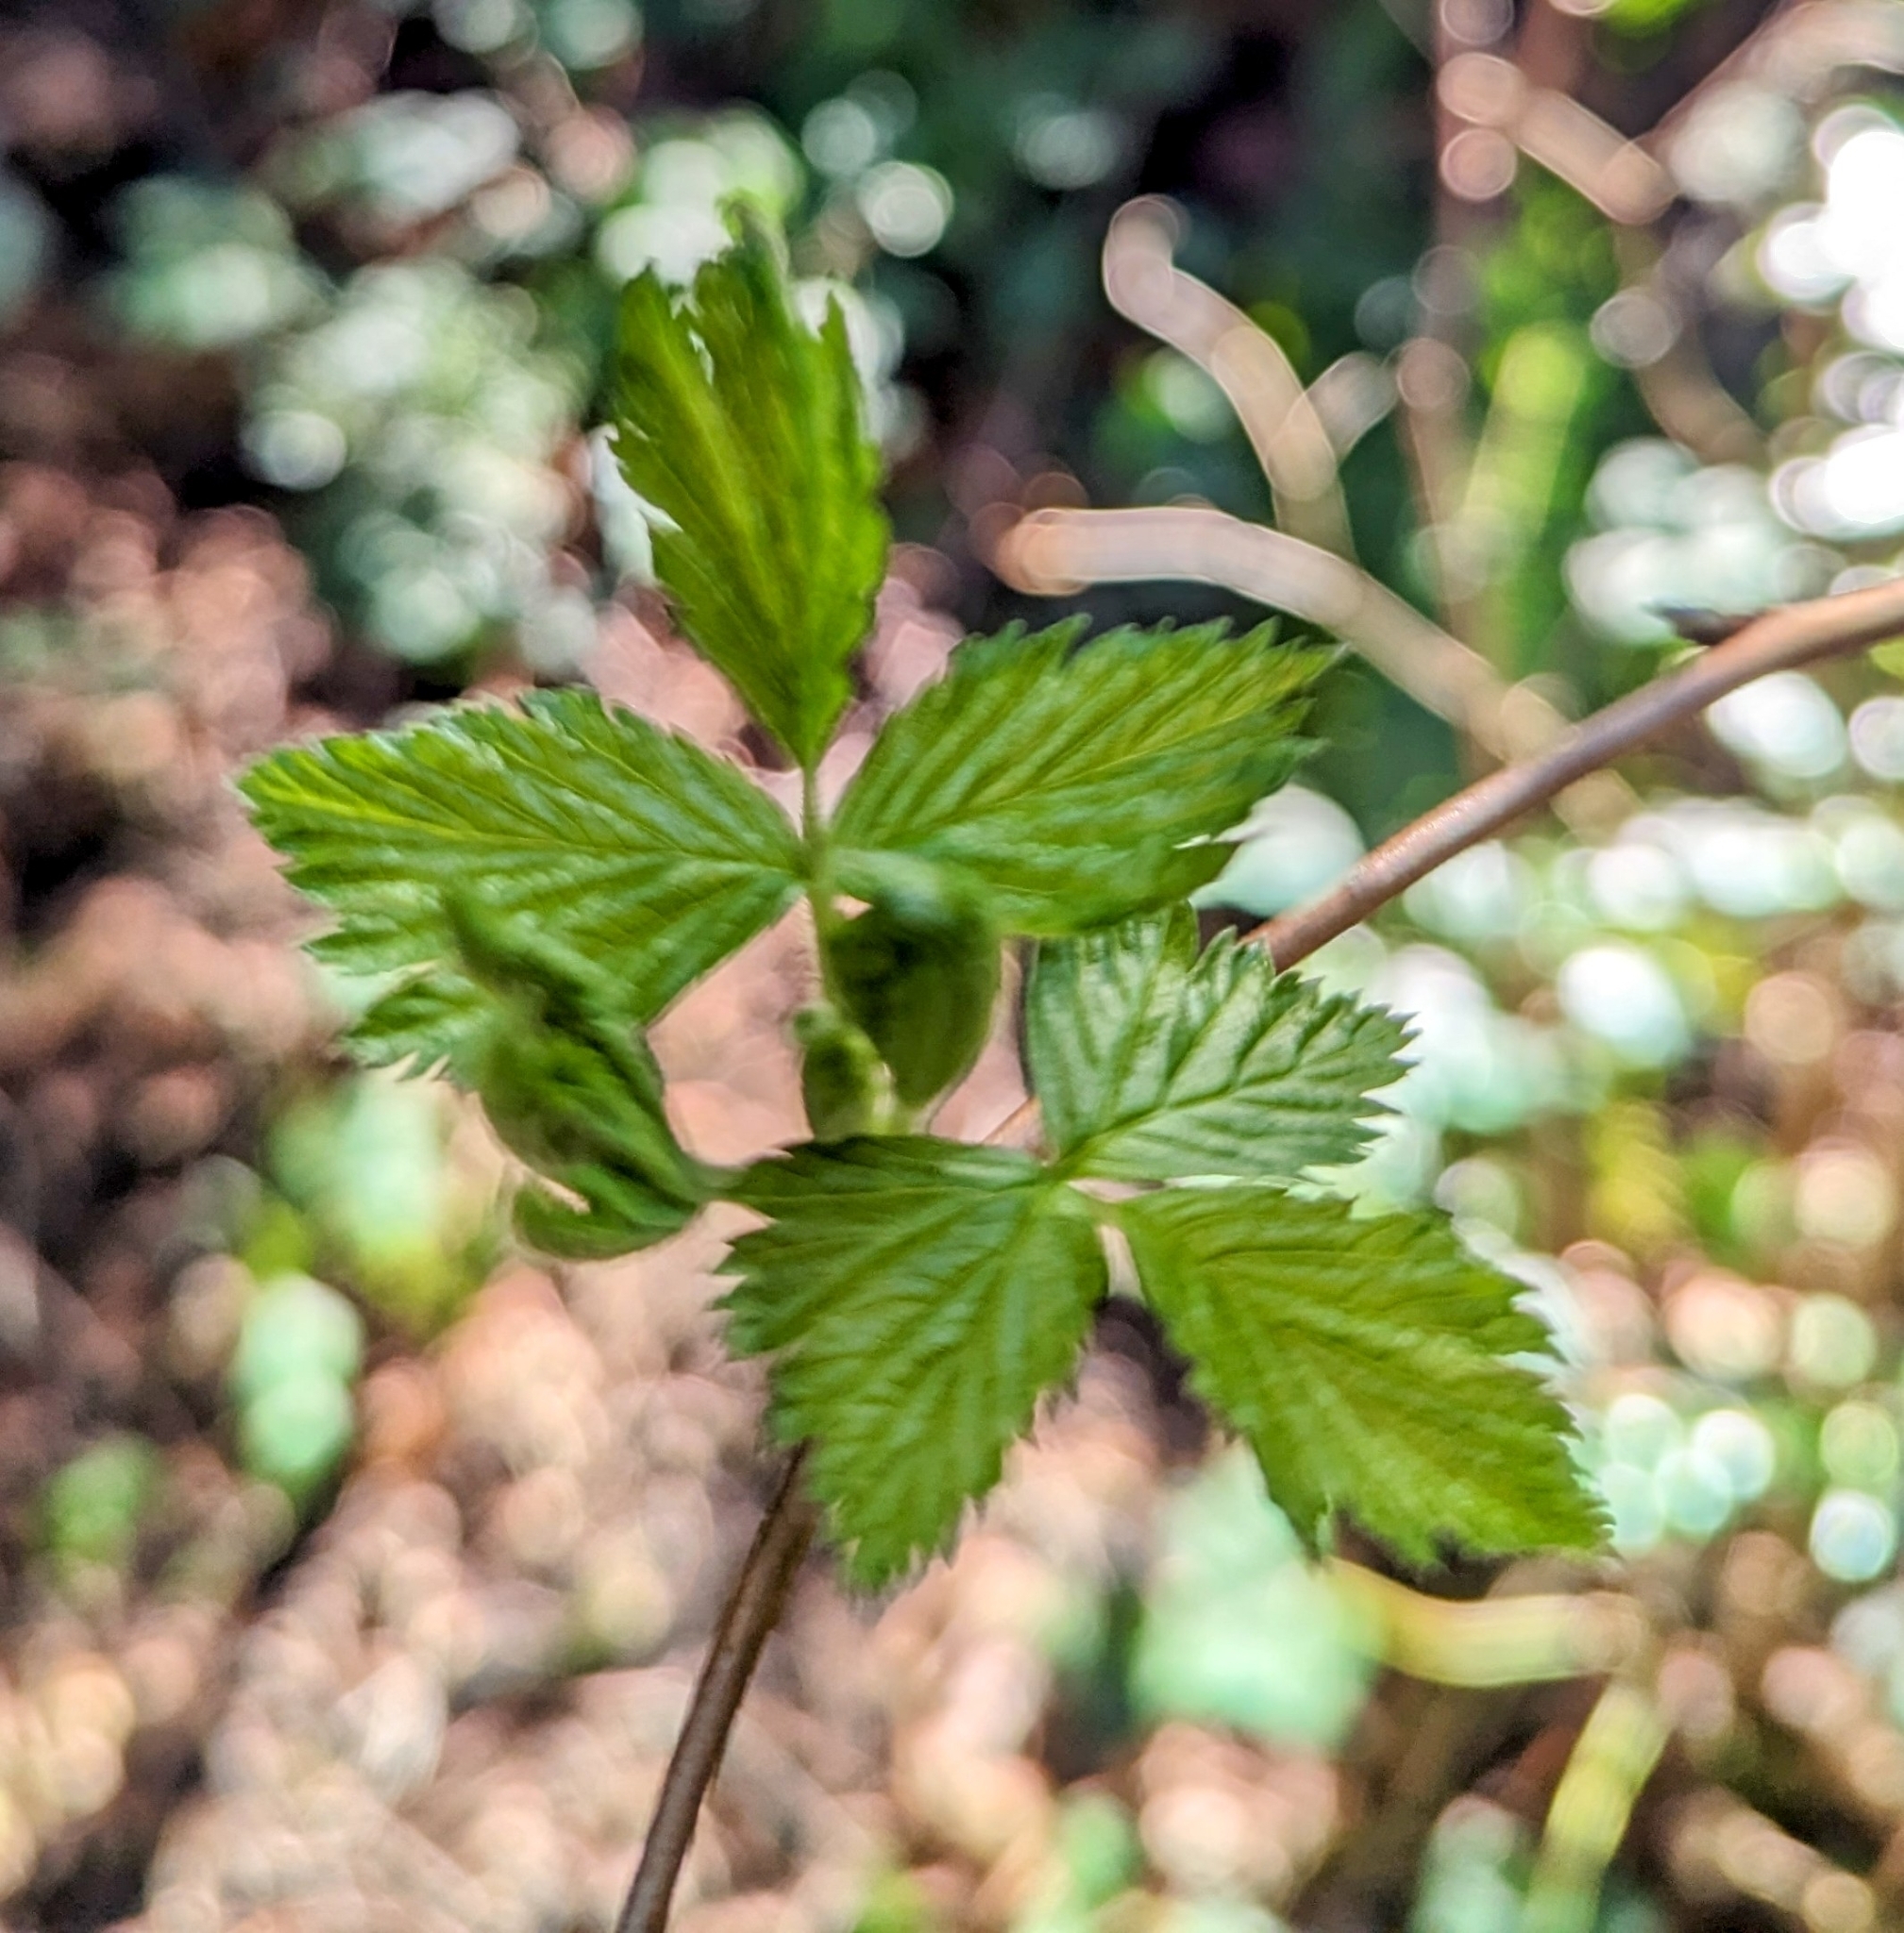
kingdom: Plantae
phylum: Tracheophyta
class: Magnoliopsida
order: Rosales
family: Rosaceae
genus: Rubus
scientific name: Rubus spectabilis
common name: Salmonberry
